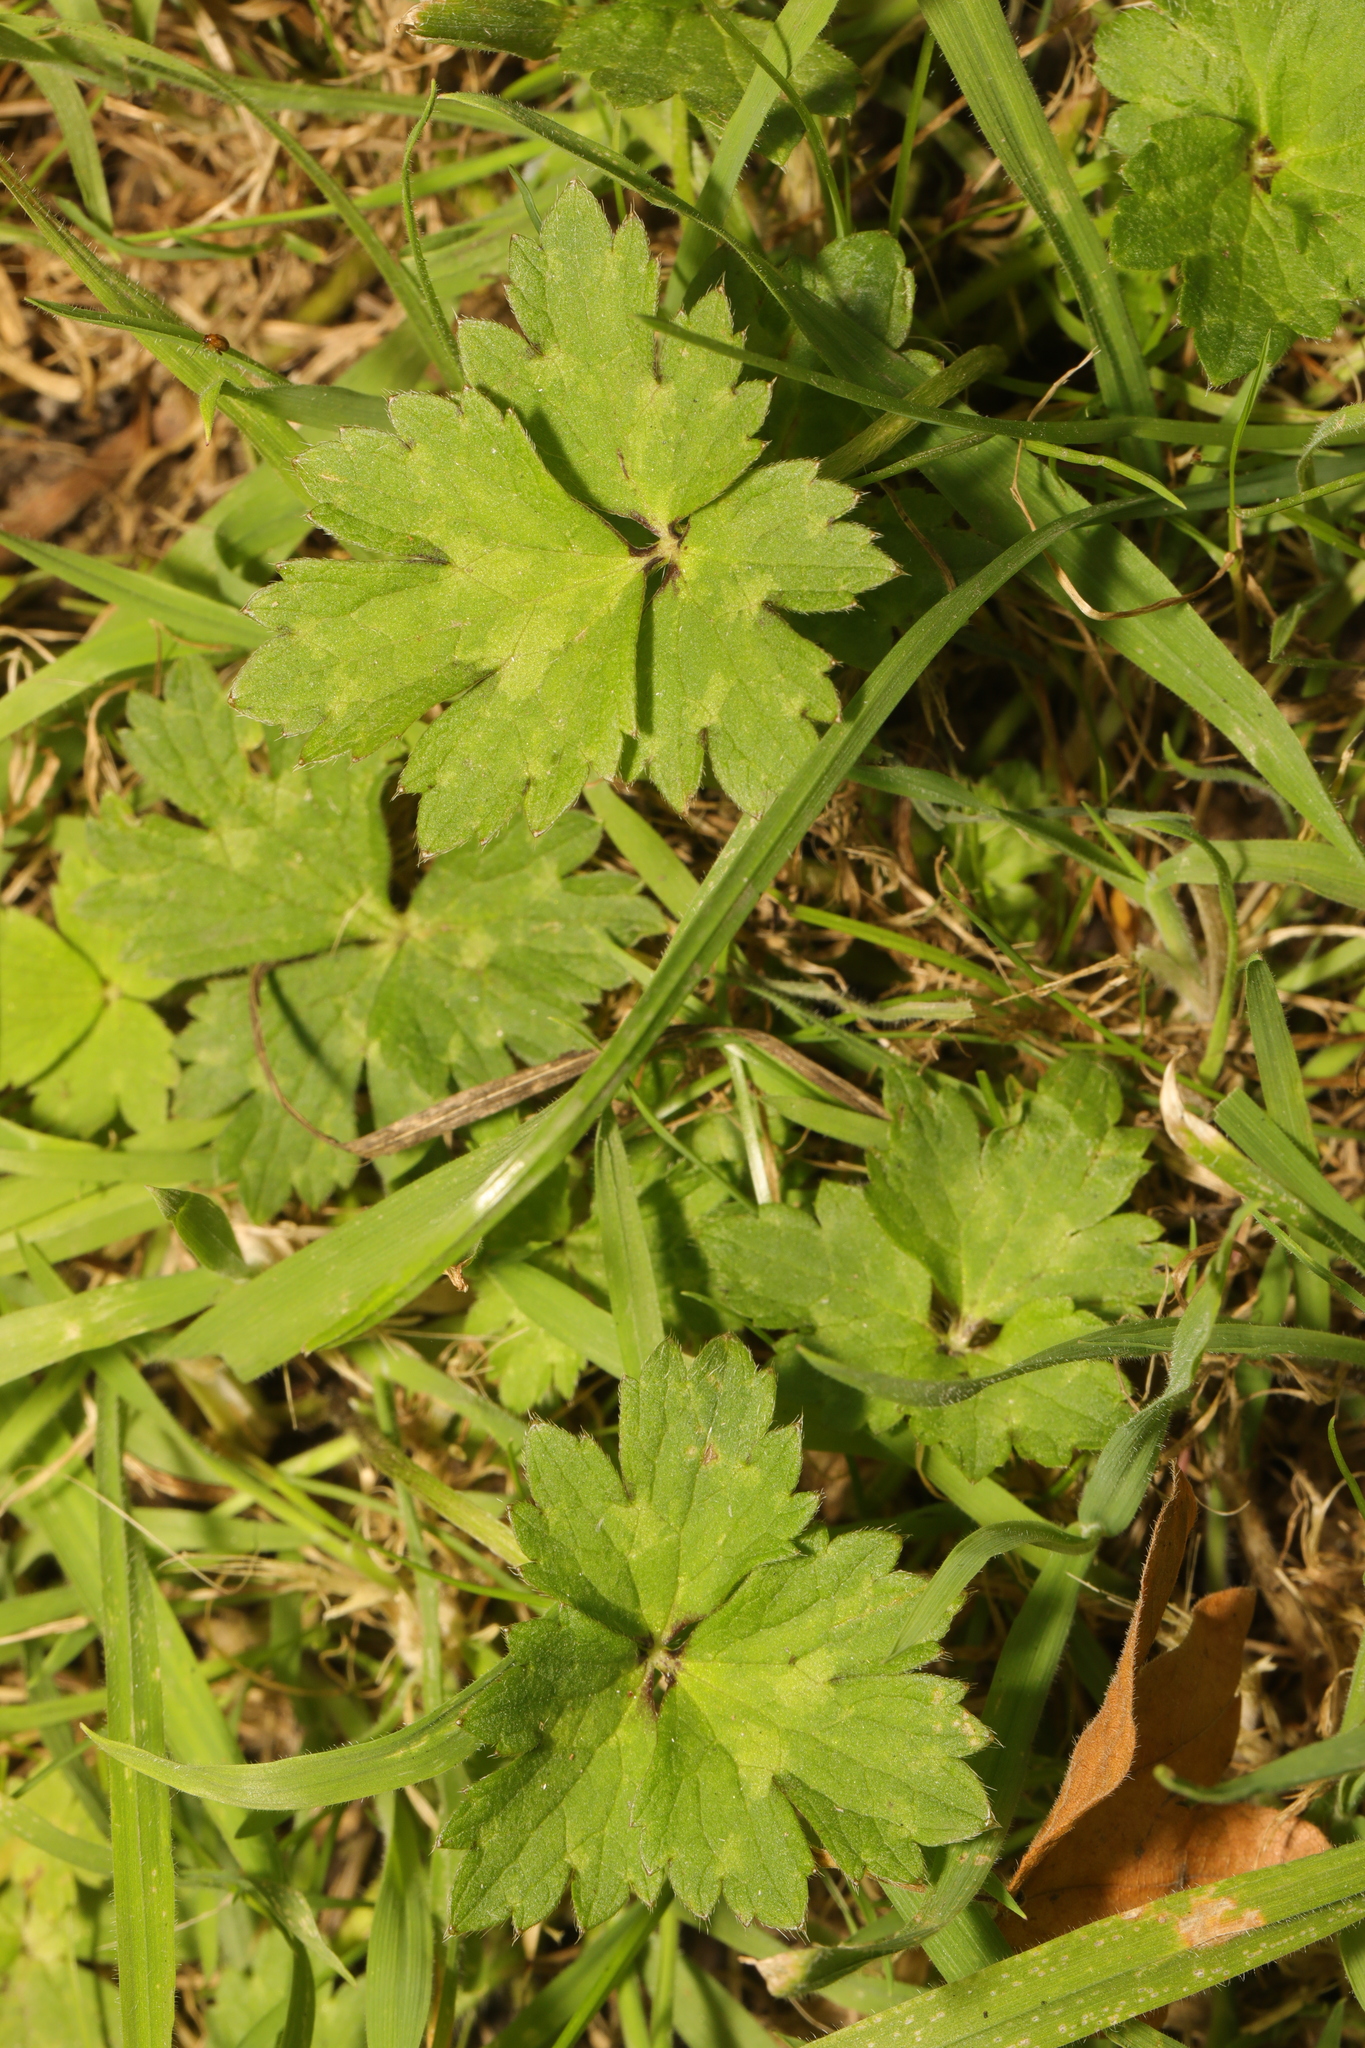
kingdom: Plantae
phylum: Tracheophyta
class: Magnoliopsida
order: Ranunculales
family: Ranunculaceae
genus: Ranunculus
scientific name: Ranunculus repens
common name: Creeping buttercup
